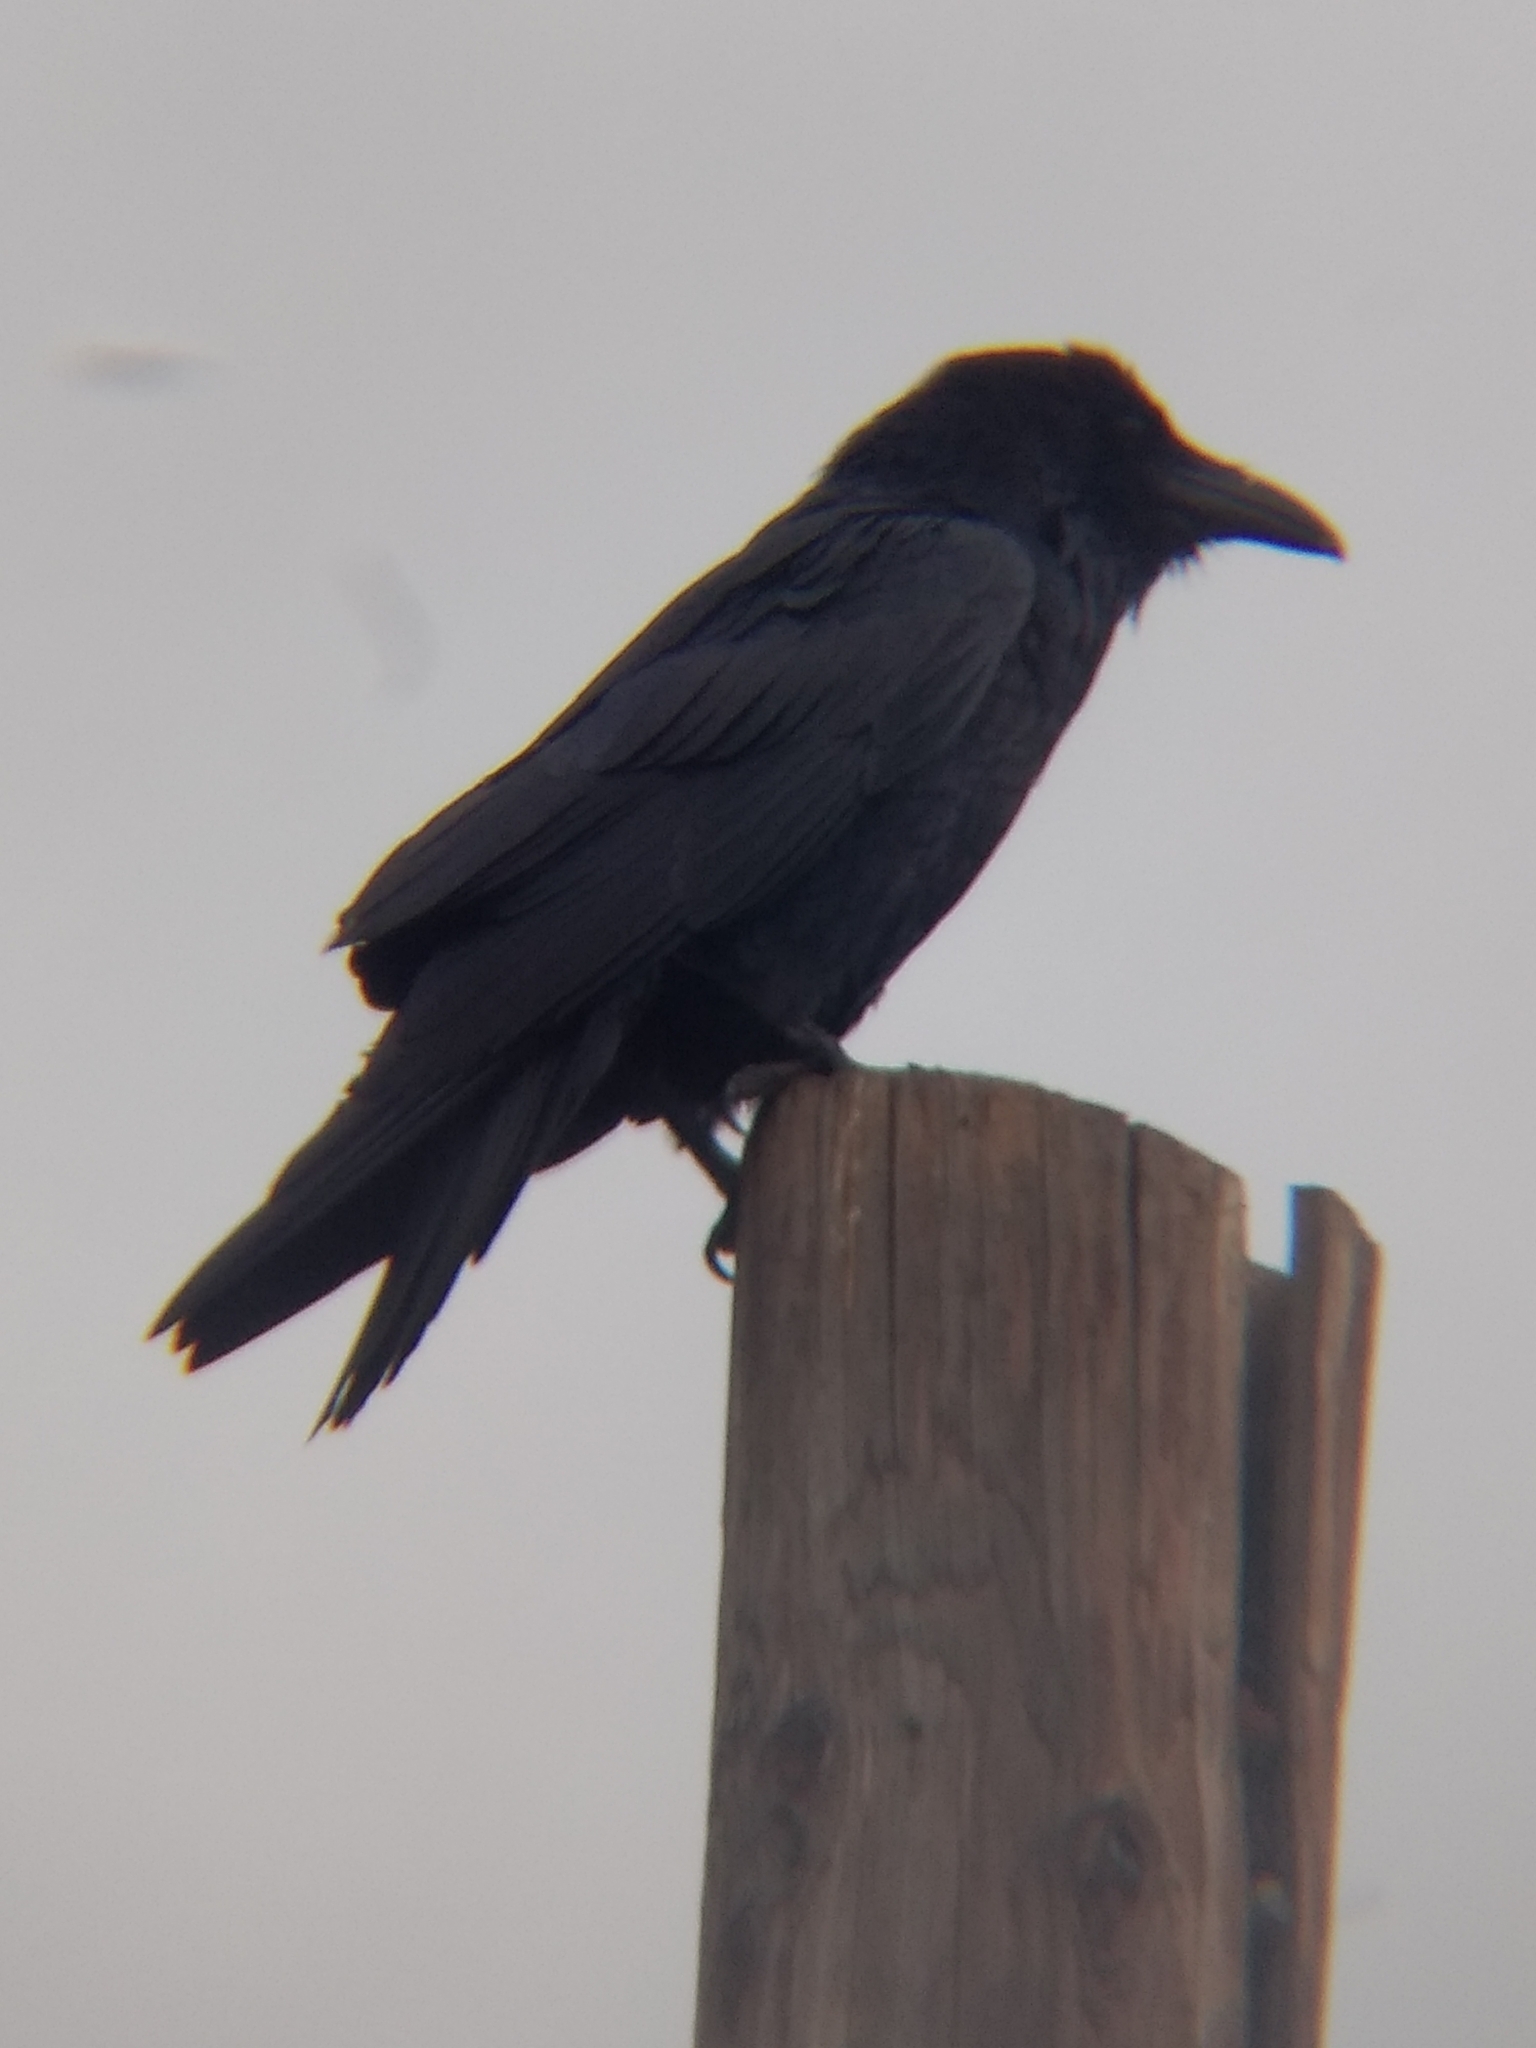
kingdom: Animalia
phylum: Chordata
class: Aves
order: Passeriformes
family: Corvidae
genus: Corvus
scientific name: Corvus corax
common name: Common raven
